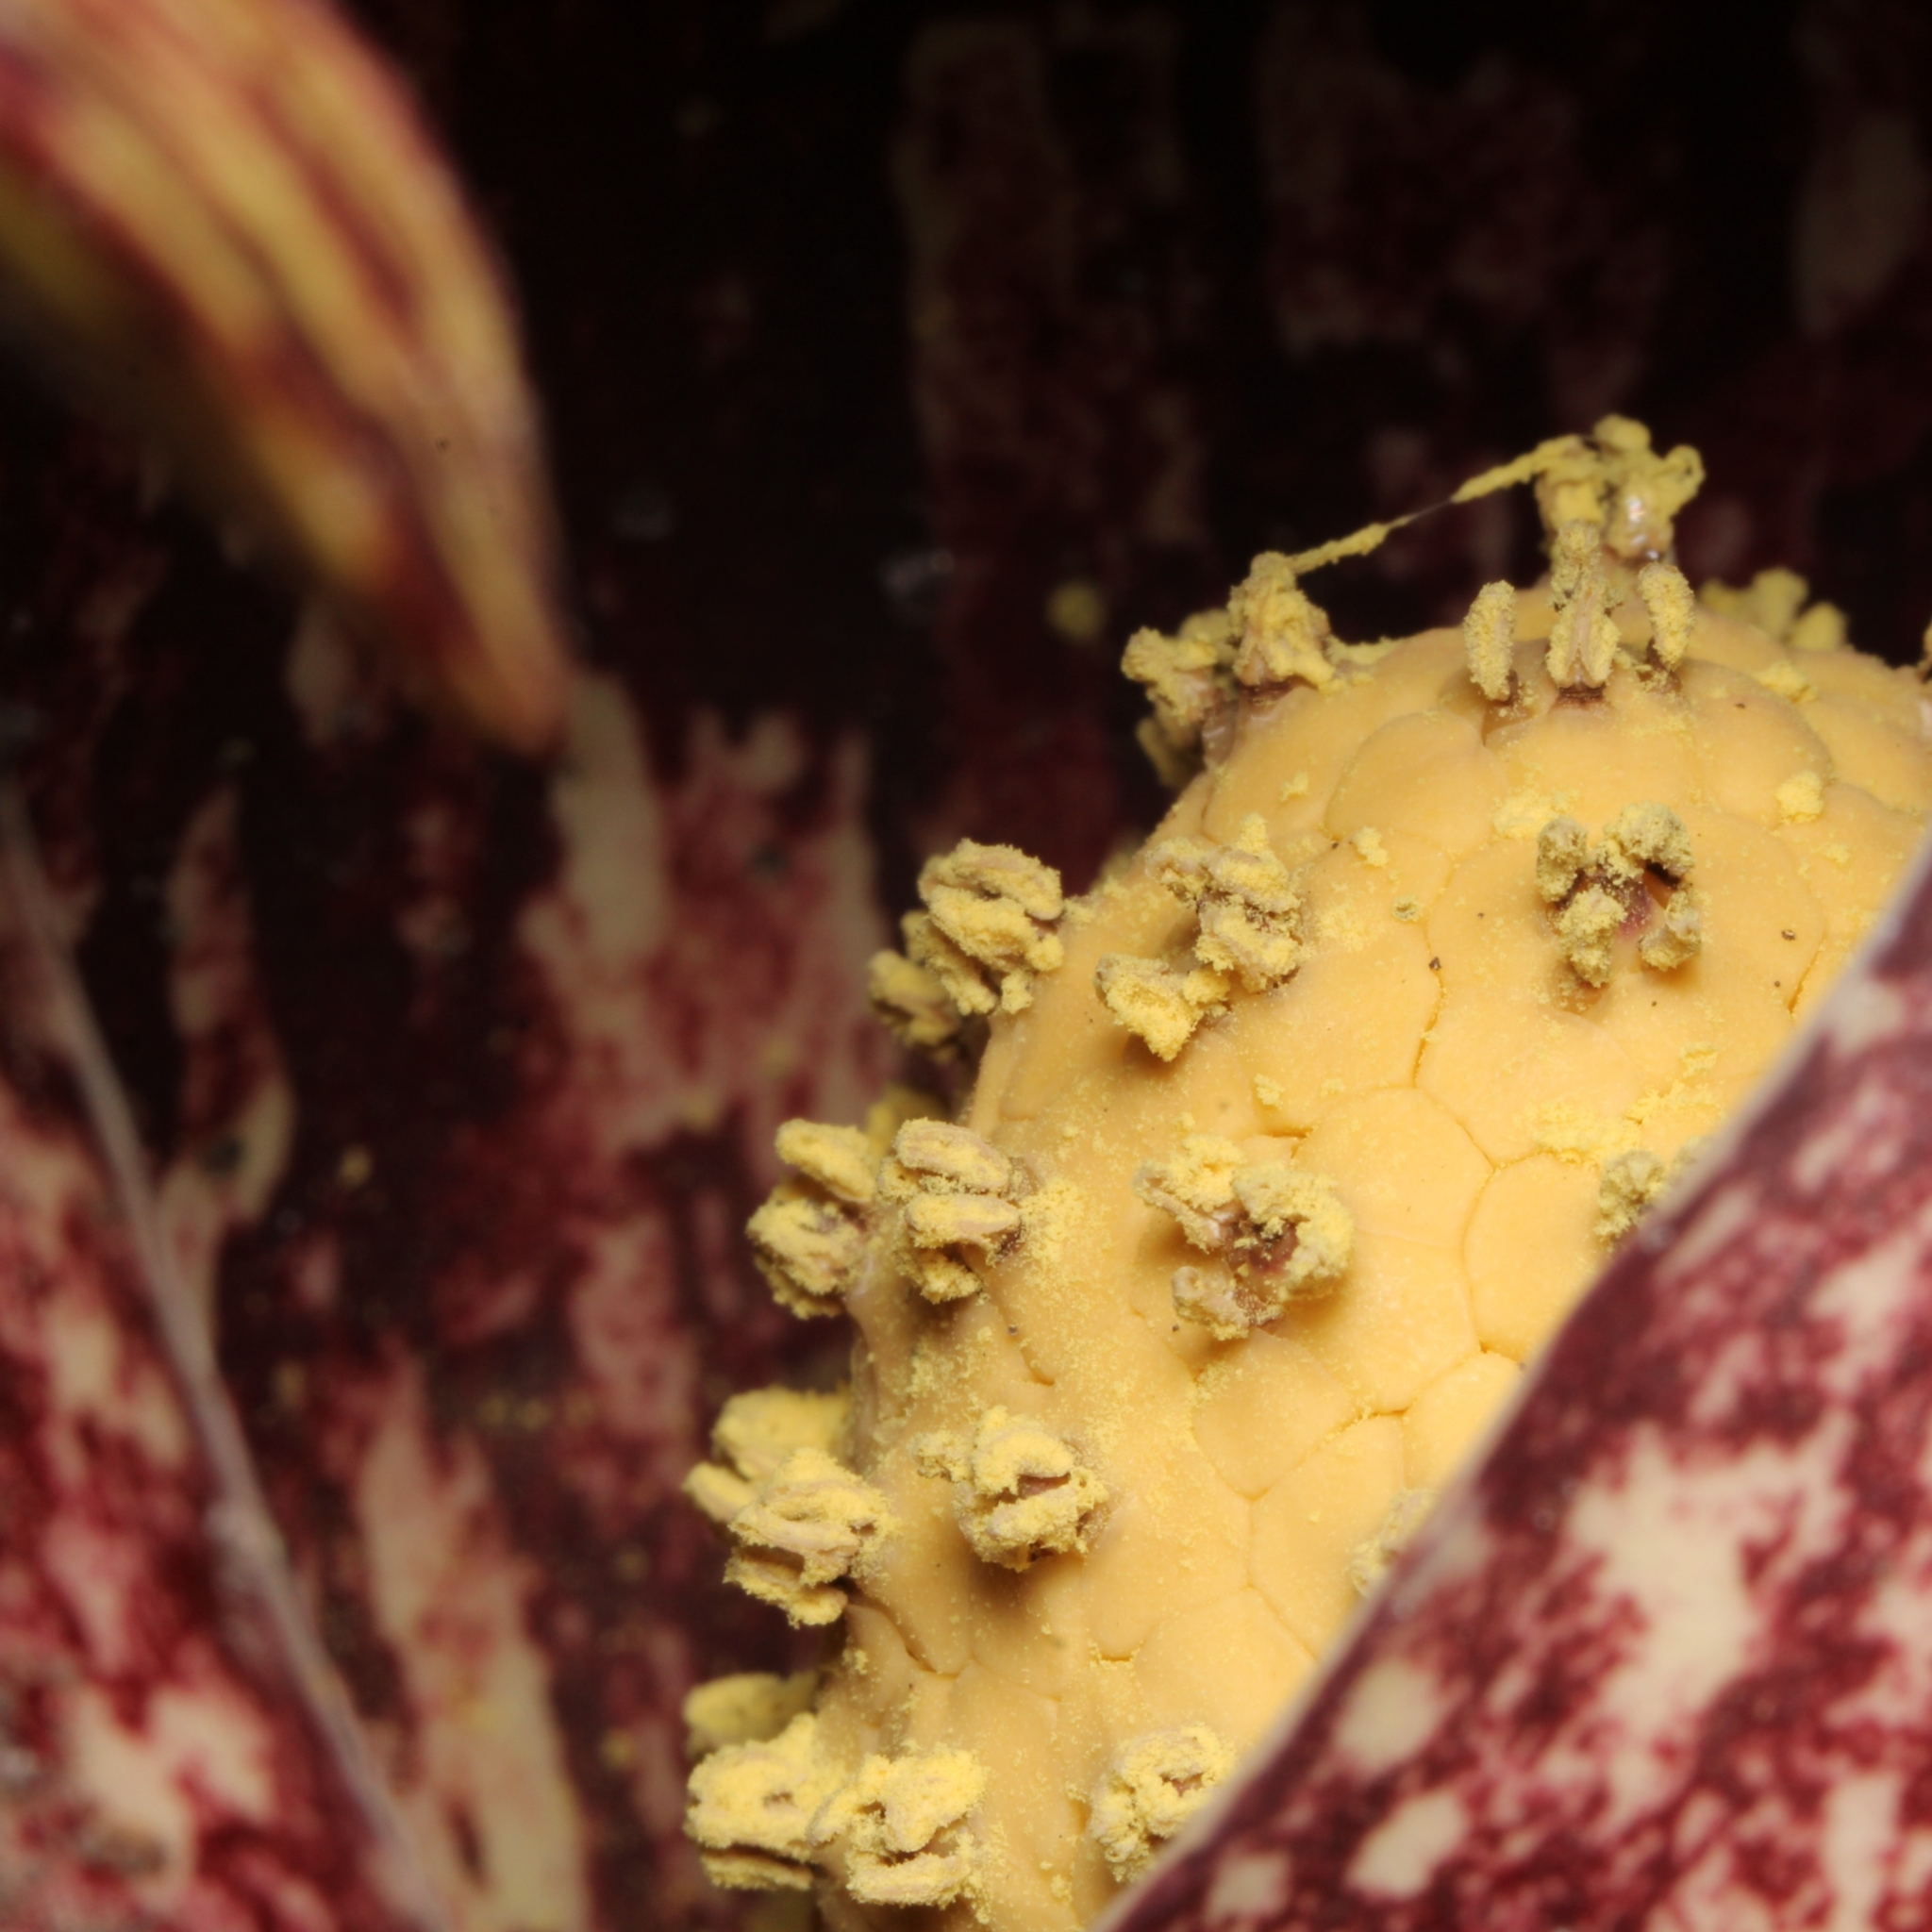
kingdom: Plantae
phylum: Tracheophyta
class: Liliopsida
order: Alismatales
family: Araceae
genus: Symplocarpus
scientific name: Symplocarpus foetidus
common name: Eastern skunk cabbage
